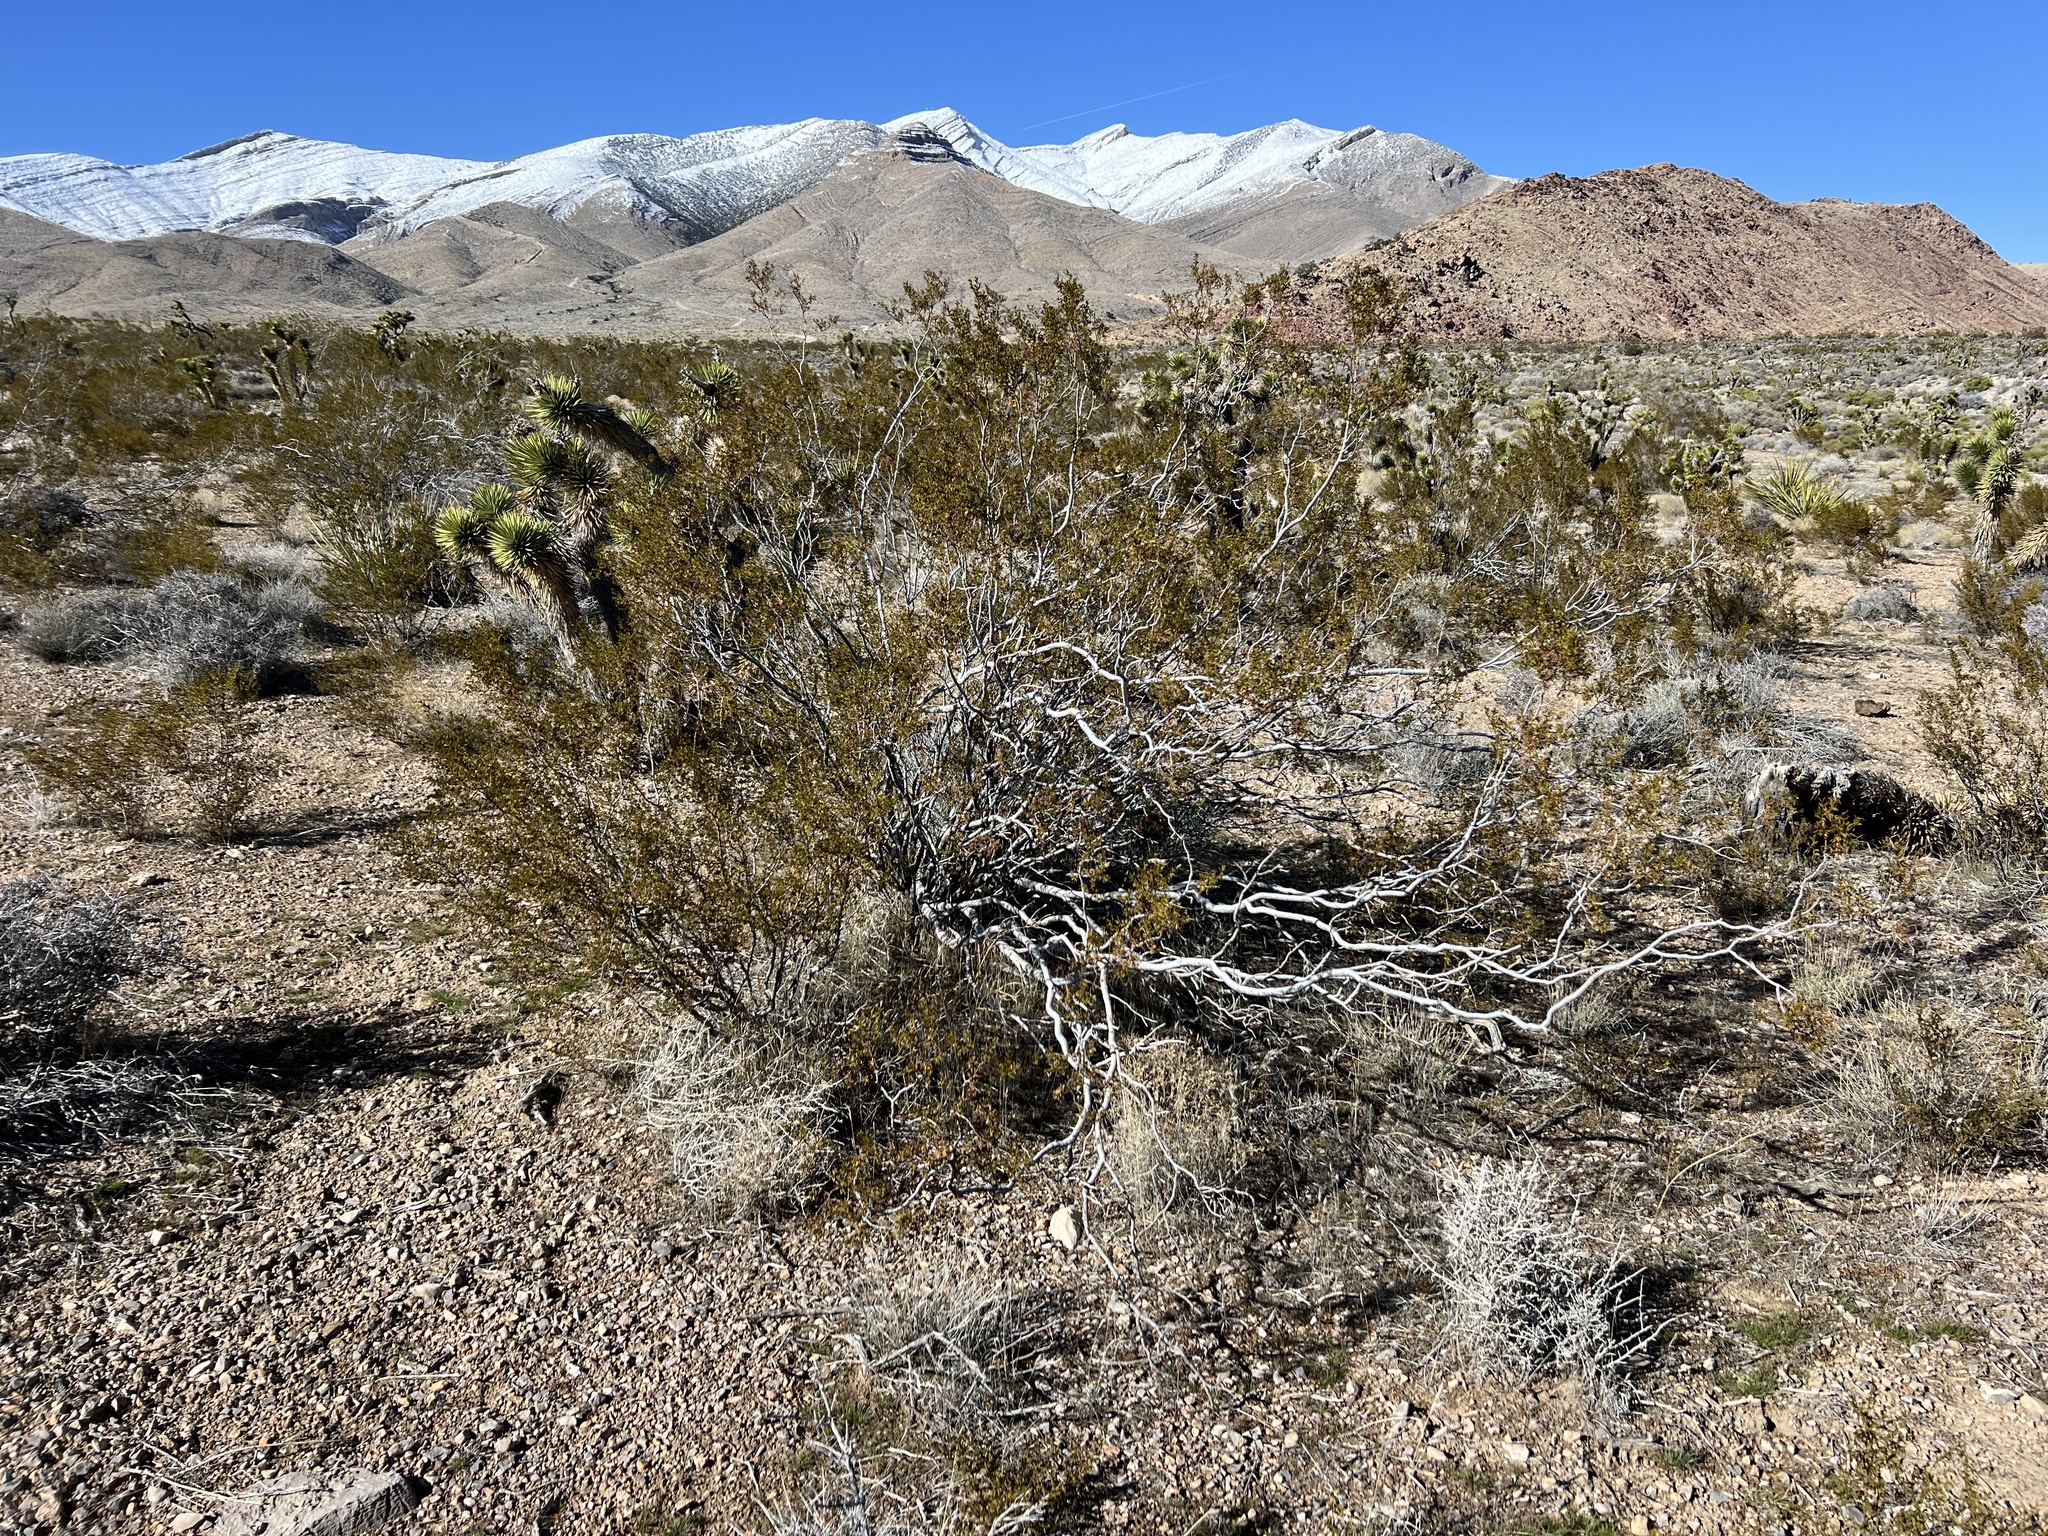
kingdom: Plantae
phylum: Tracheophyta
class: Magnoliopsida
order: Zygophyllales
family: Zygophyllaceae
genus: Larrea
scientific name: Larrea tridentata
